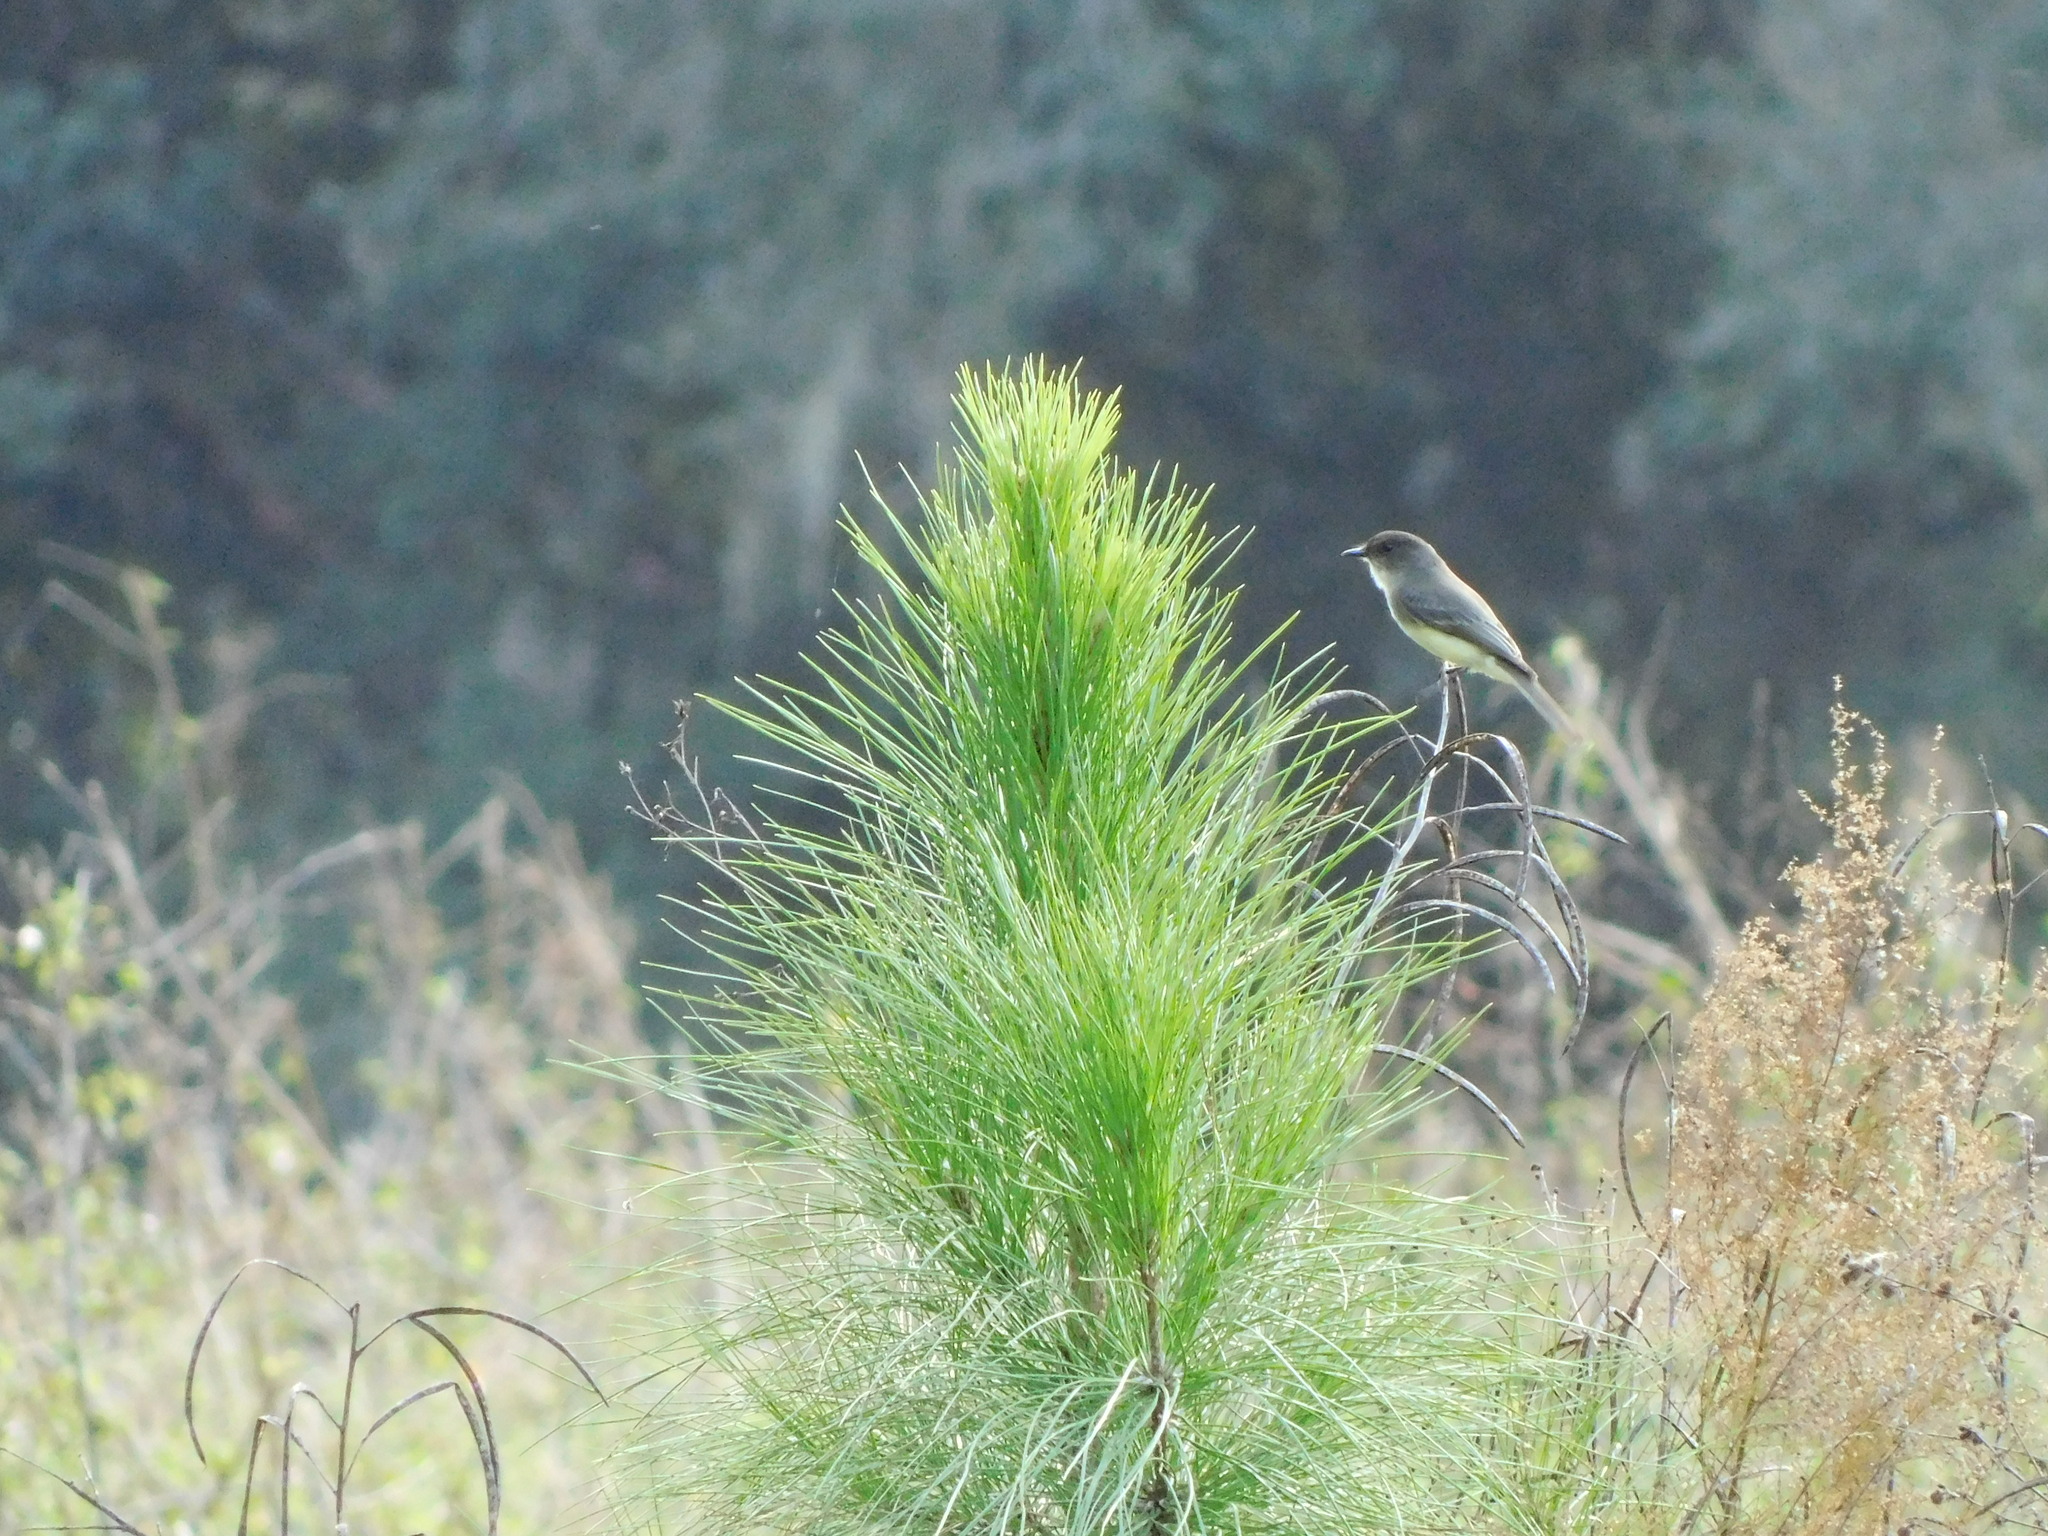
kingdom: Animalia
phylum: Chordata
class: Aves
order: Passeriformes
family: Tyrannidae
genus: Sayornis
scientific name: Sayornis phoebe
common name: Eastern phoebe
